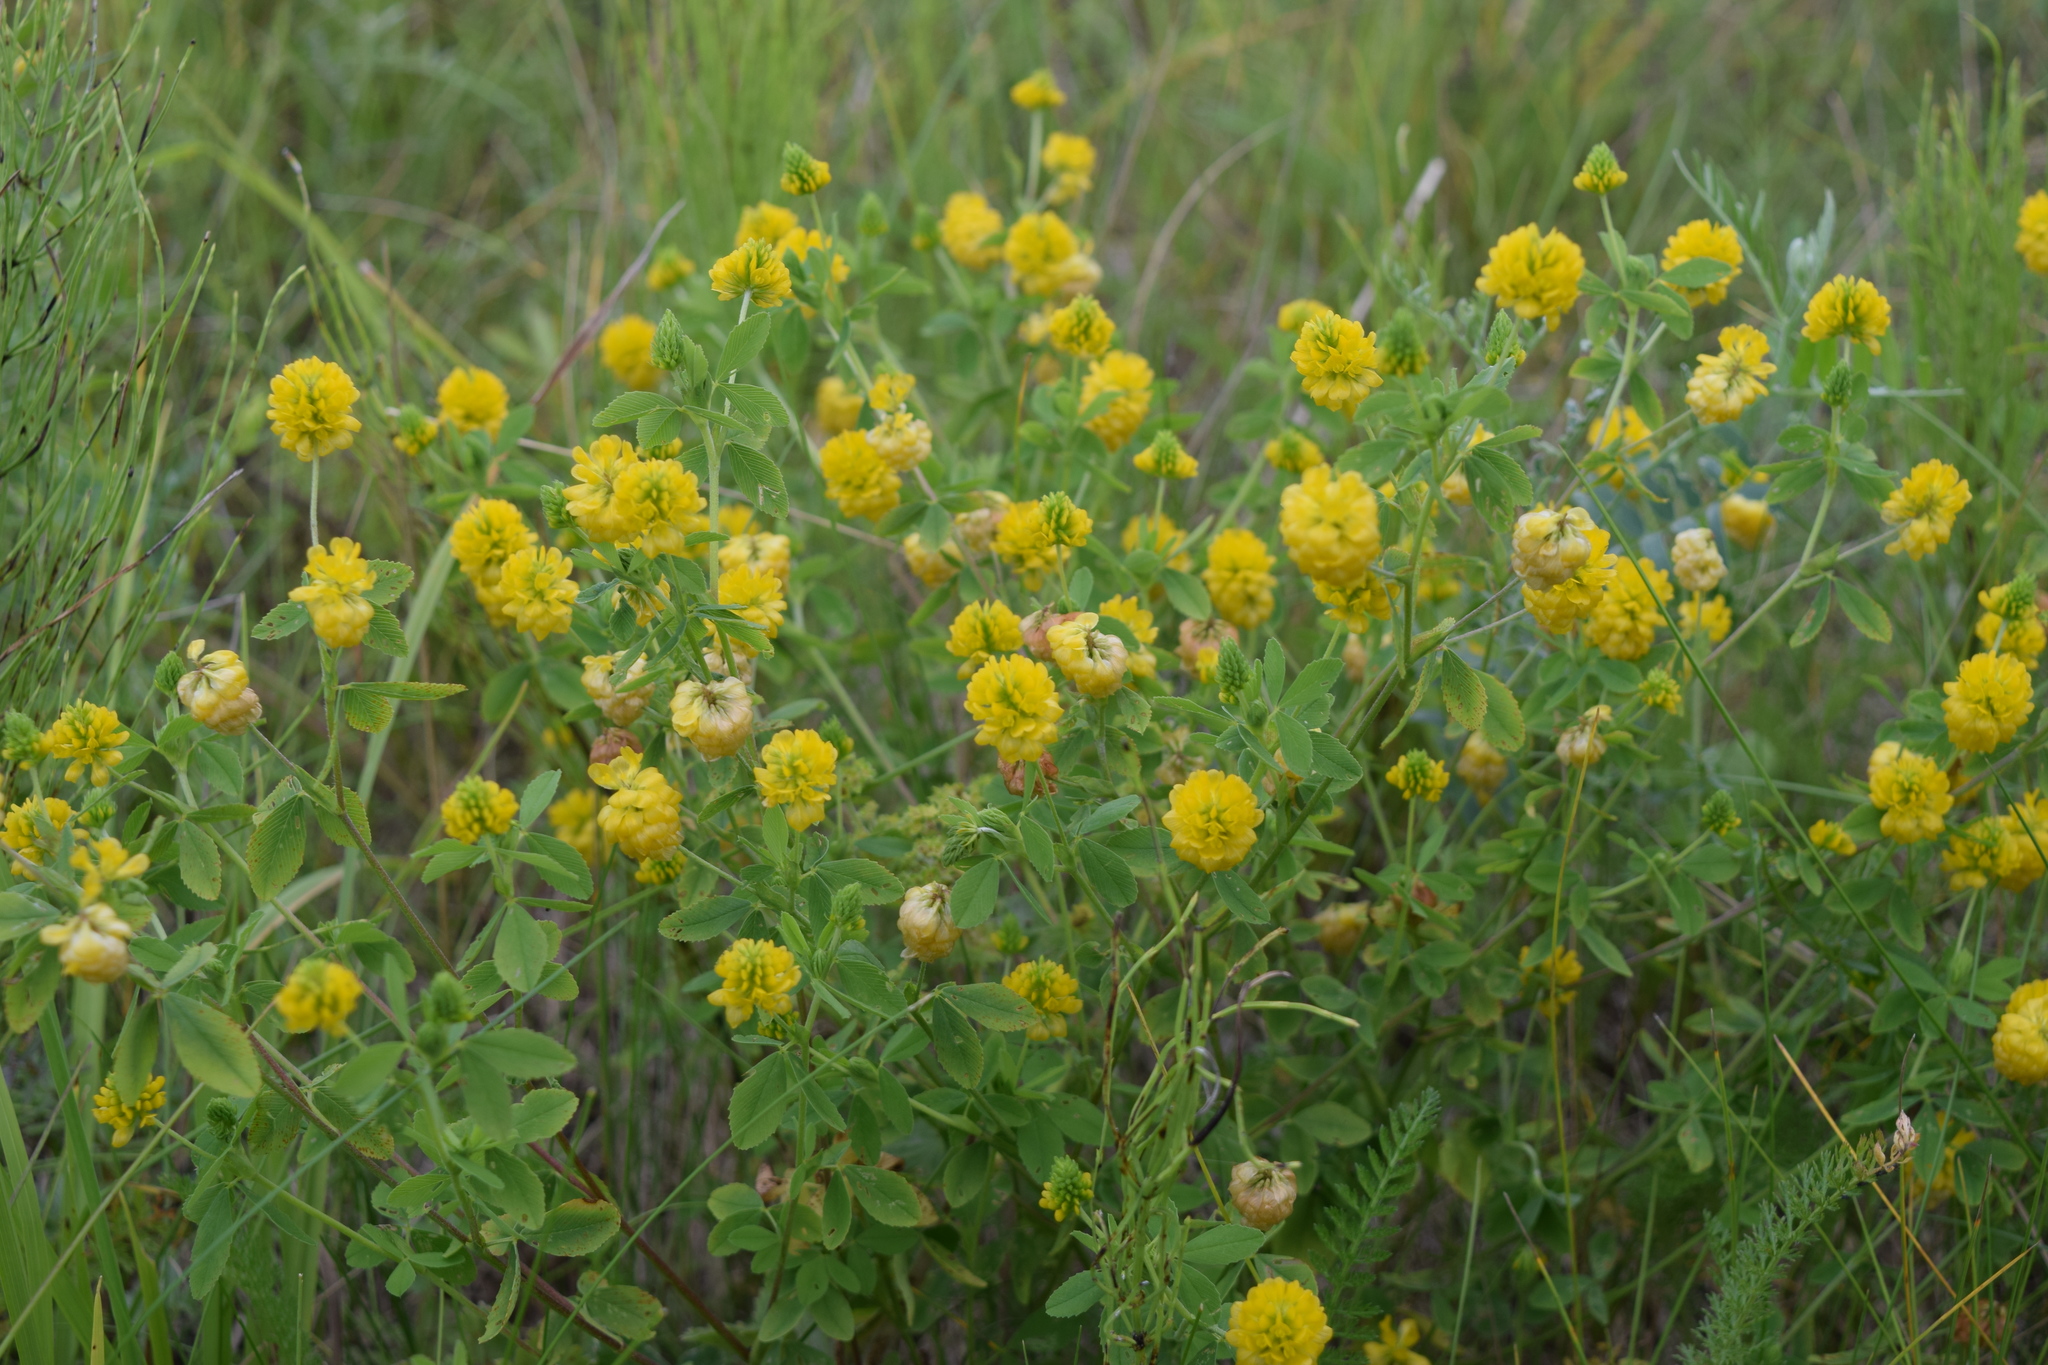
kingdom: Plantae
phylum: Tracheophyta
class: Magnoliopsida
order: Fabales
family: Fabaceae
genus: Trifolium
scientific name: Trifolium aureum
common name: Golden clover
